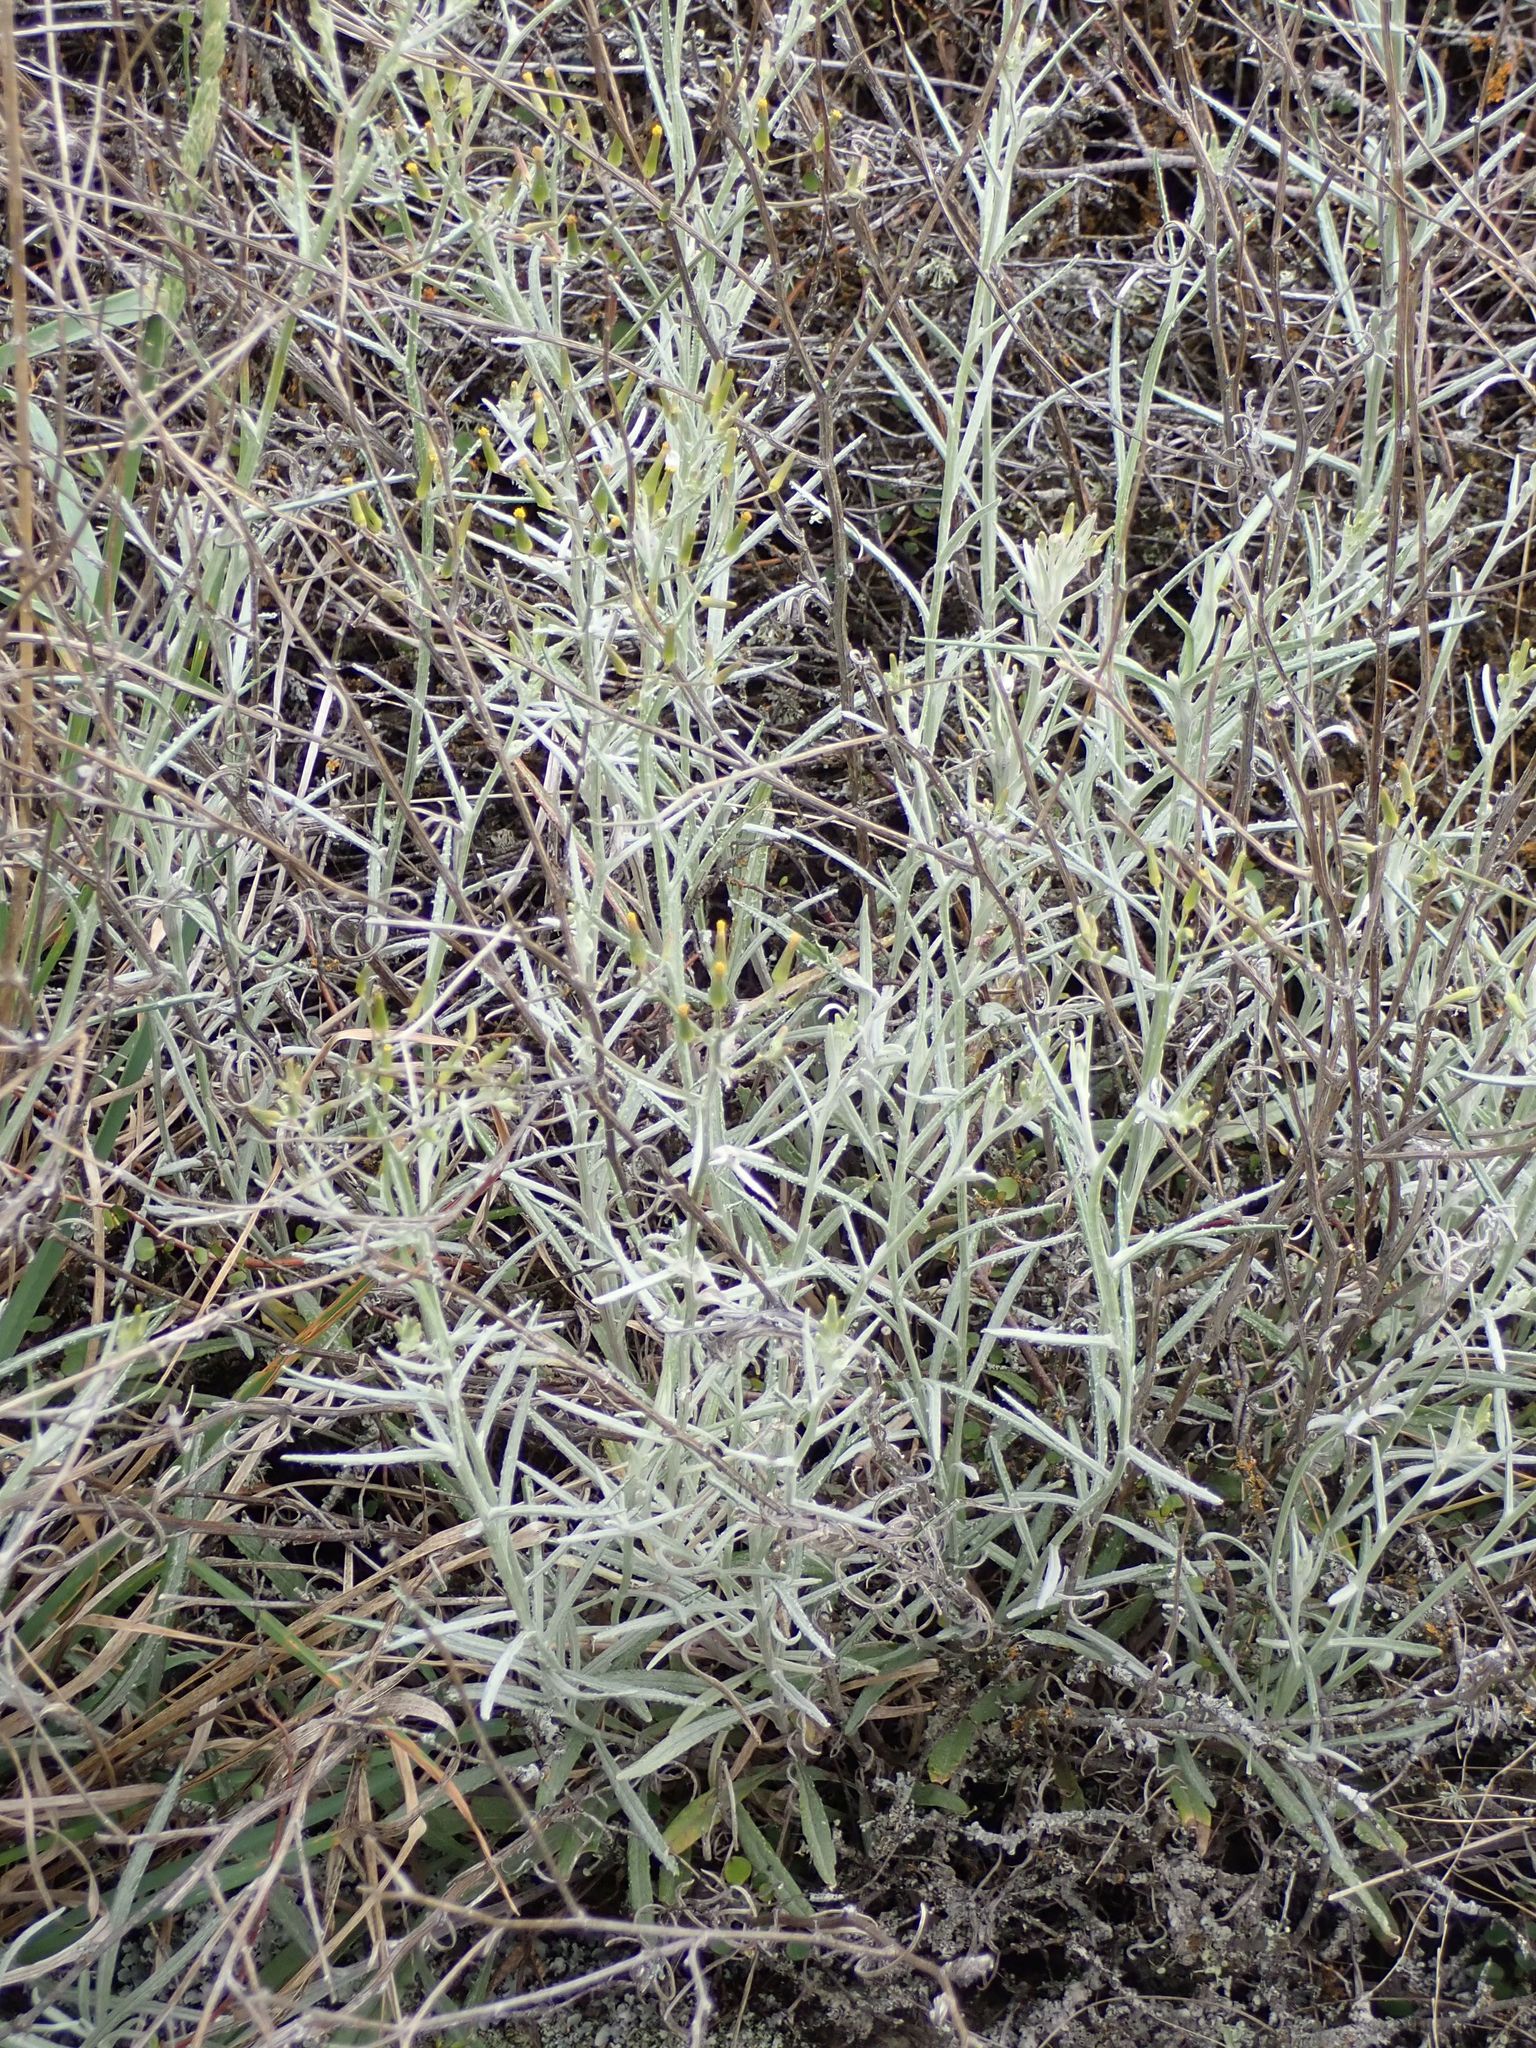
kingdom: Plantae
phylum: Tracheophyta
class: Magnoliopsida
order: Asterales
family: Asteraceae
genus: Senecio
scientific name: Senecio quadridentatus
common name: Cotton fireweed
